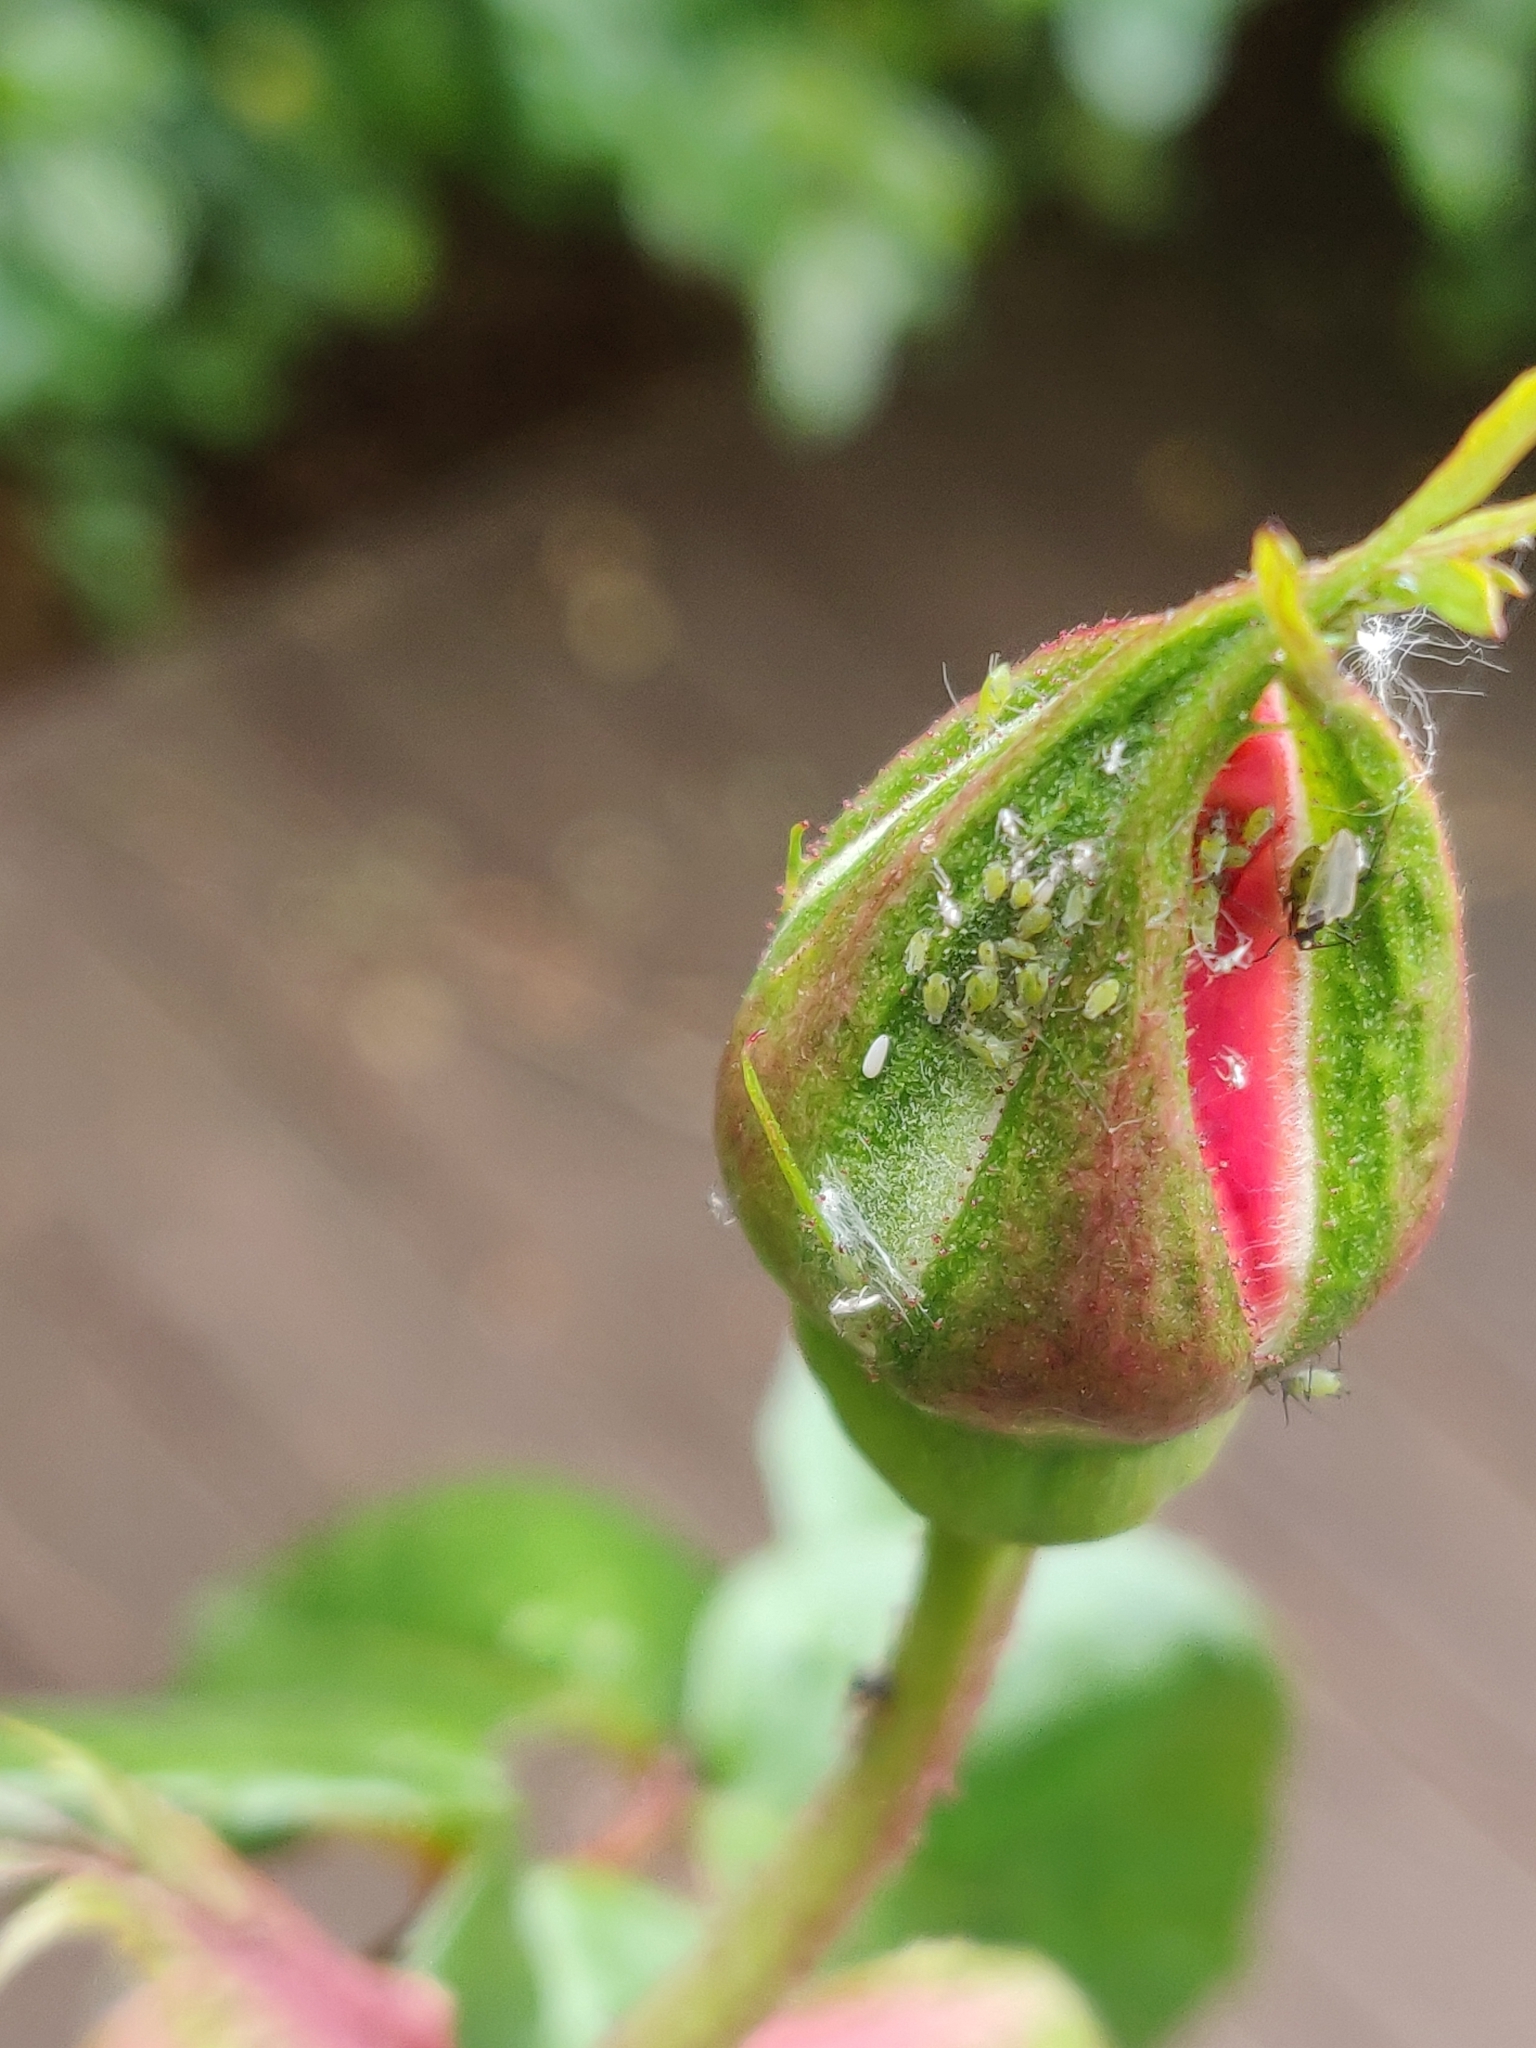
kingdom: Animalia
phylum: Arthropoda
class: Insecta
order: Hemiptera
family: Aphididae
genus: Macrosiphum
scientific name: Macrosiphum rosae
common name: Rose aphid
